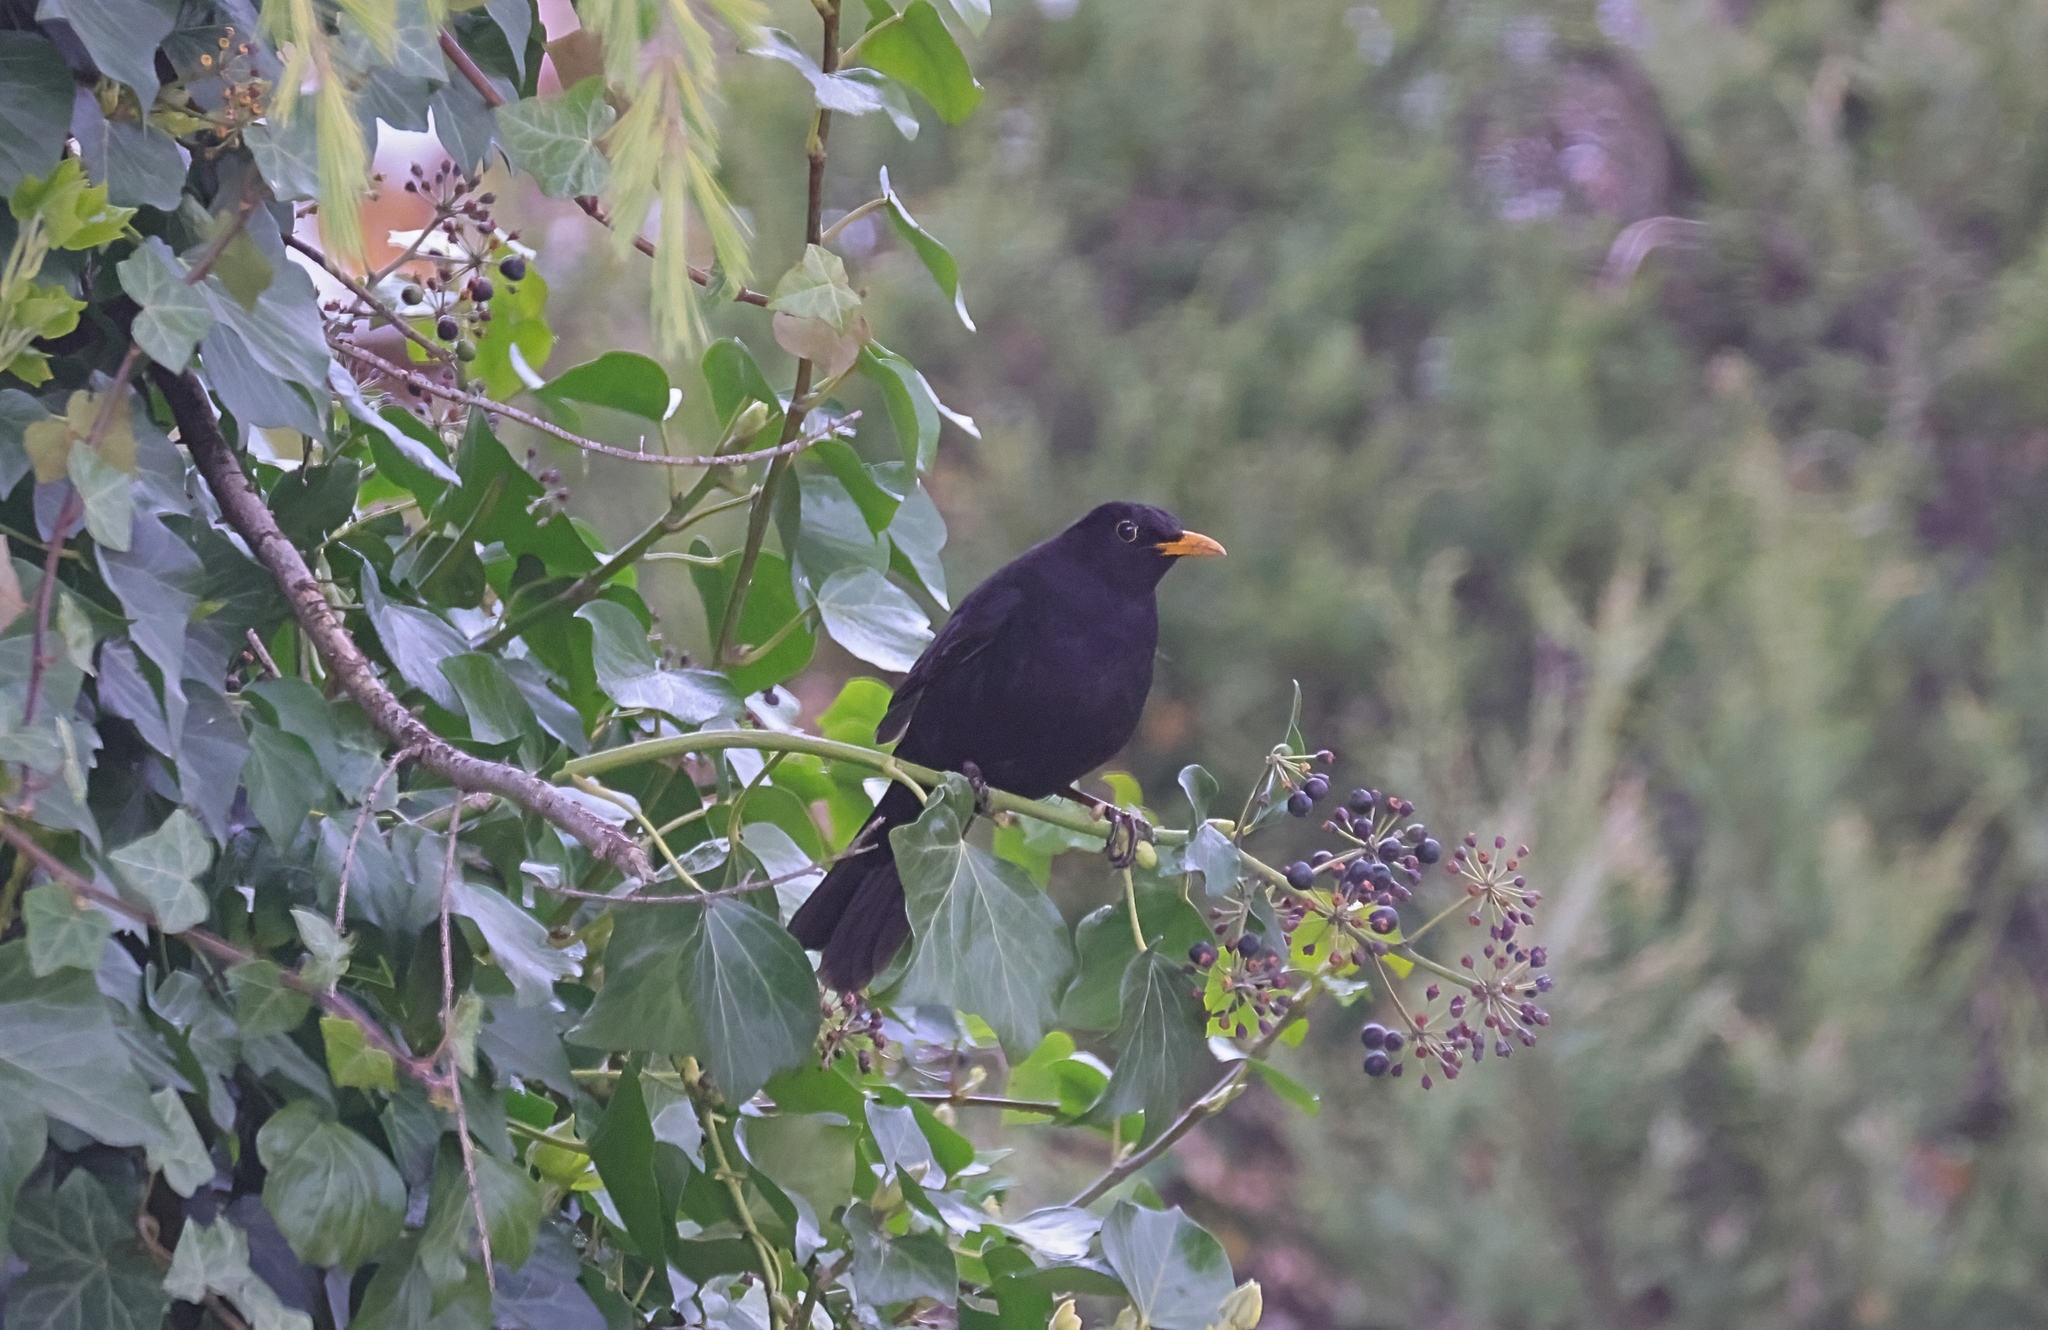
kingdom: Animalia
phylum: Chordata
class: Aves
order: Passeriformes
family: Turdidae
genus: Turdus
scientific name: Turdus merula
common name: Common blackbird
